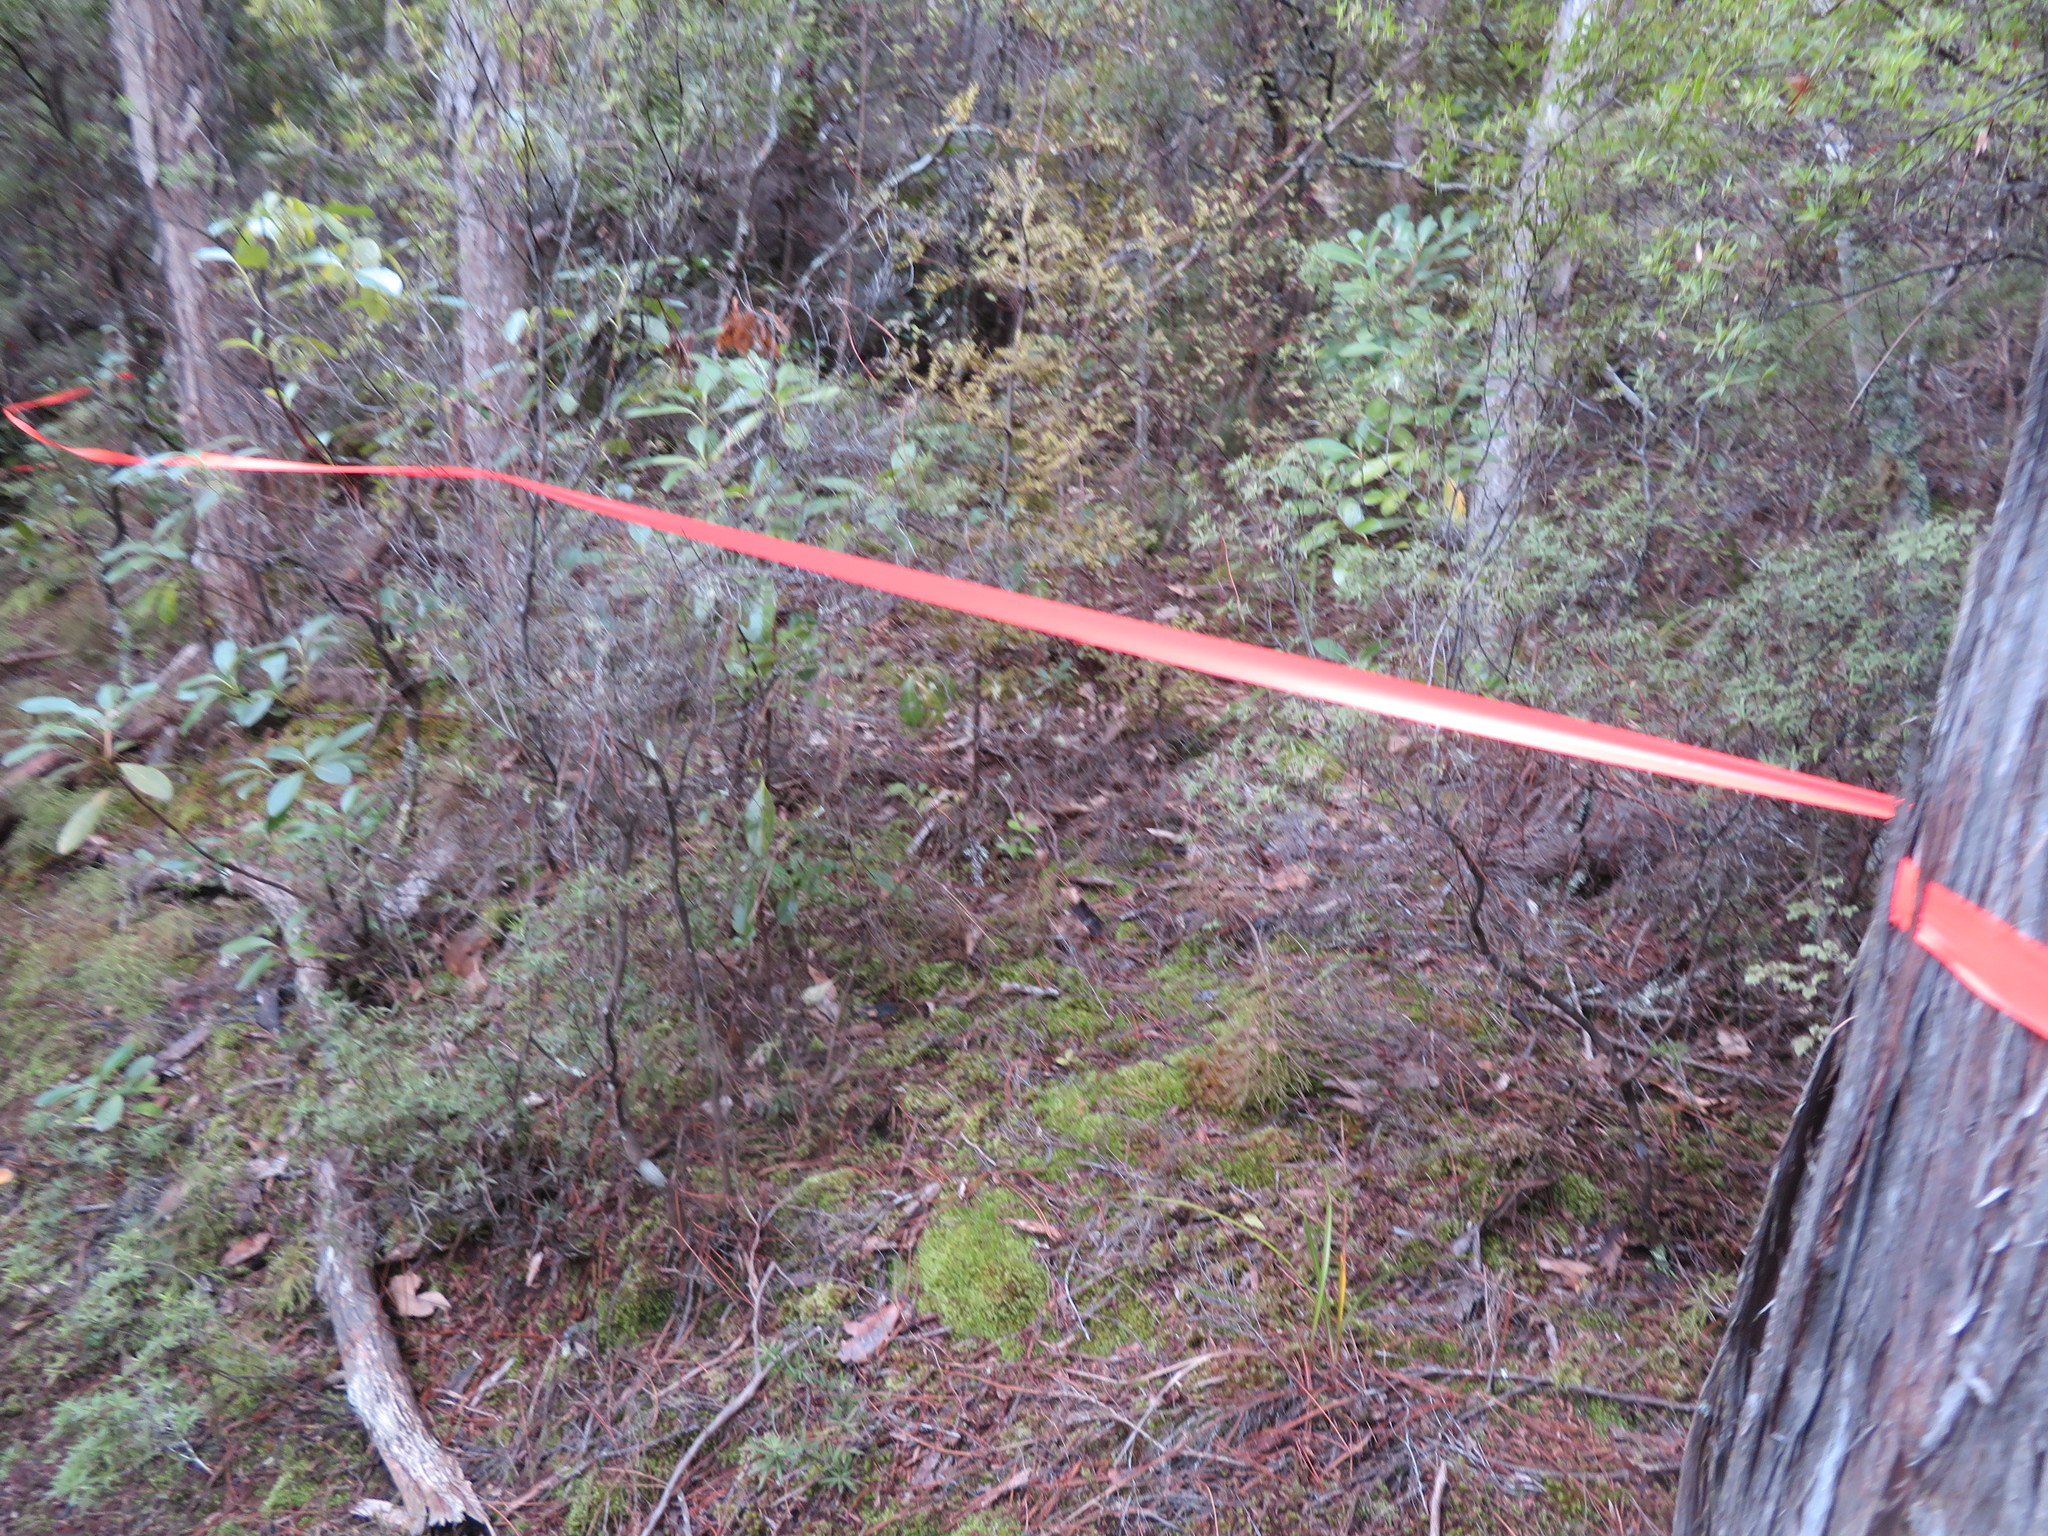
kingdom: Plantae
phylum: Tracheophyta
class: Pinopsida
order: Pinales
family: Phyllocladaceae
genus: Phyllocladus
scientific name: Phyllocladus trichomanoides
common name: Celery pine
